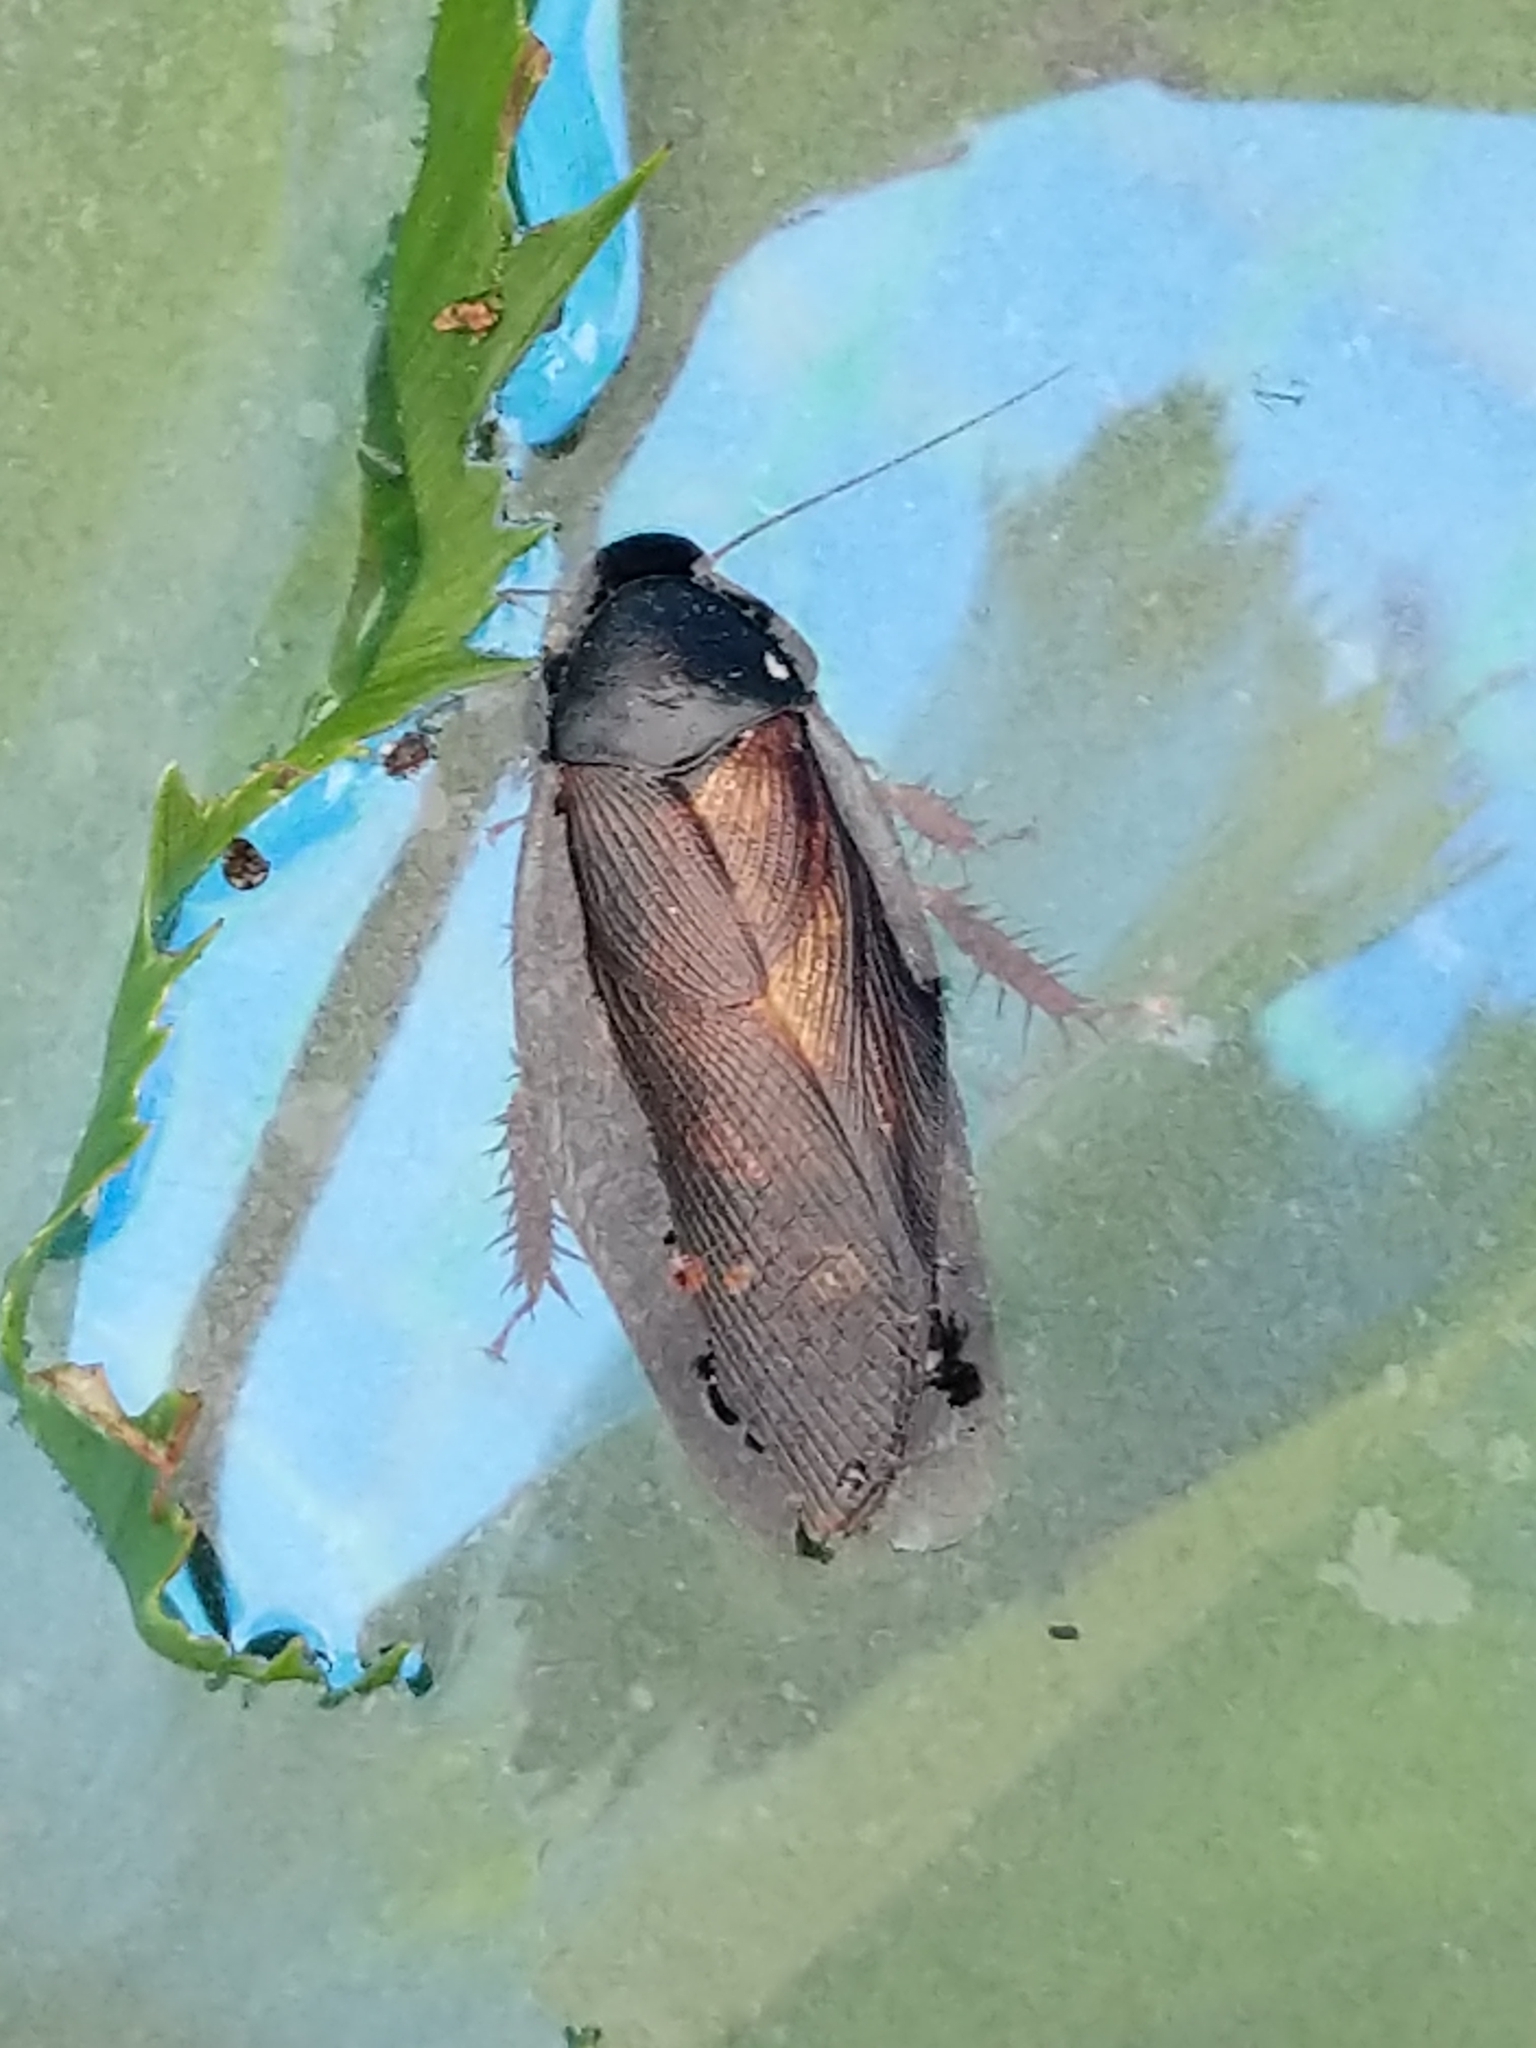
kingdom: Animalia
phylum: Arthropoda
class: Insecta
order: Blattodea
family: Blaberidae
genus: Pycnoscelus
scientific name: Pycnoscelus surinamensis
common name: Surinam cockroach
